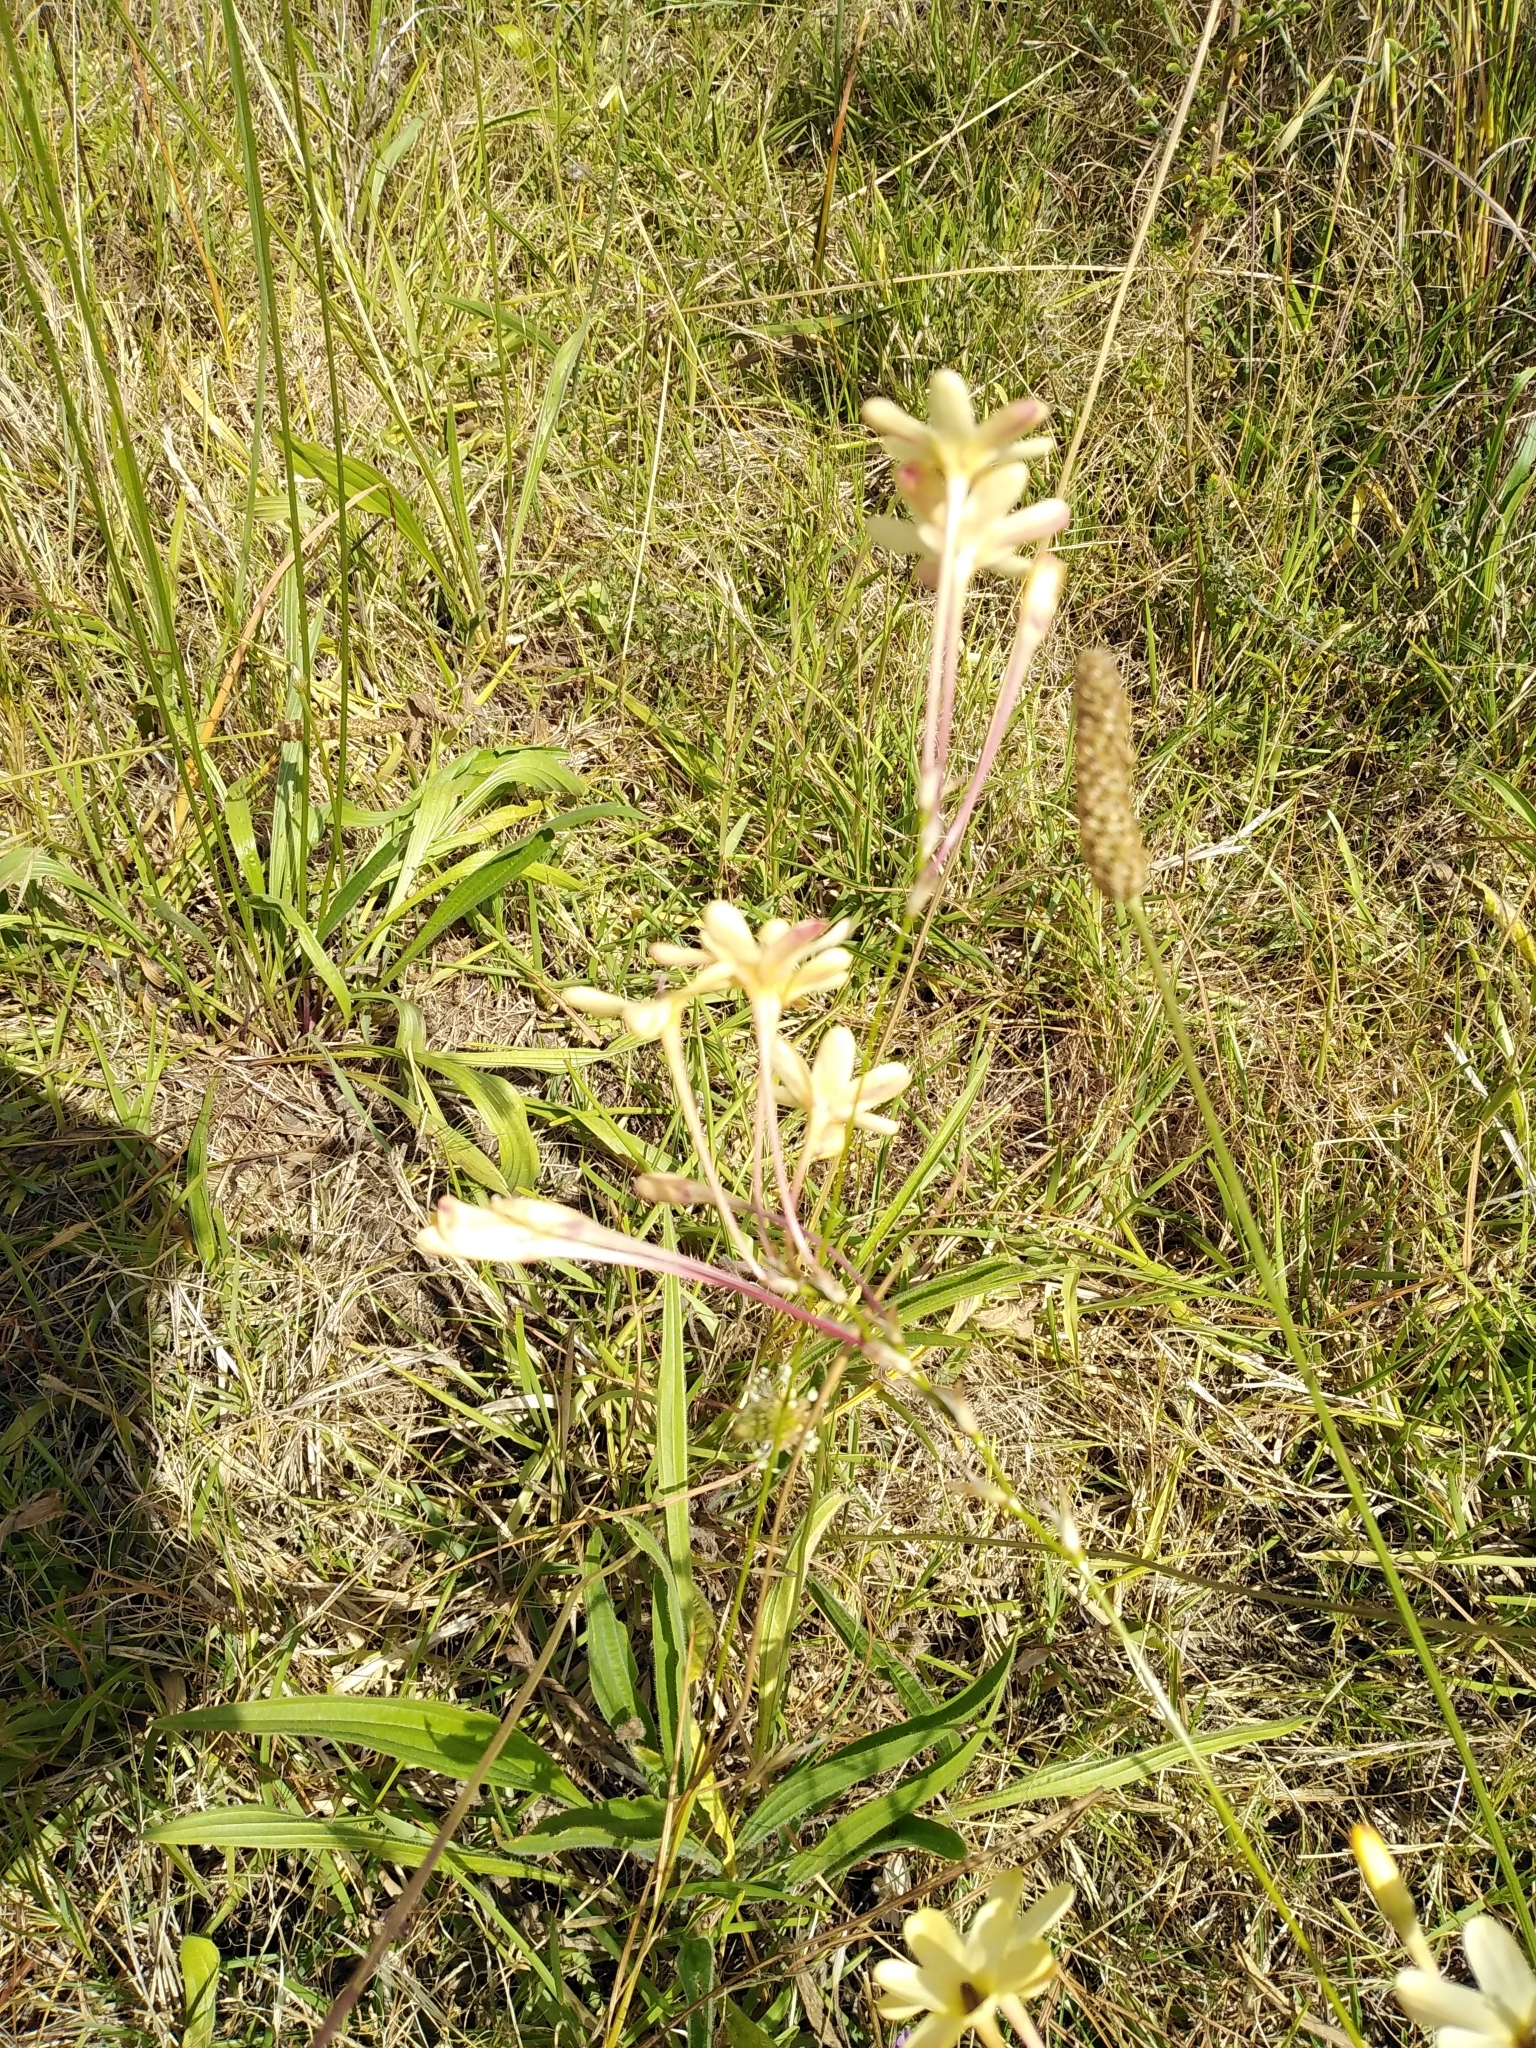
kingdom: Plantae
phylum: Tracheophyta
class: Liliopsida
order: Asparagales
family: Iridaceae
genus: Ixia
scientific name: Ixia paniculata
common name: Tubular corn-lily
